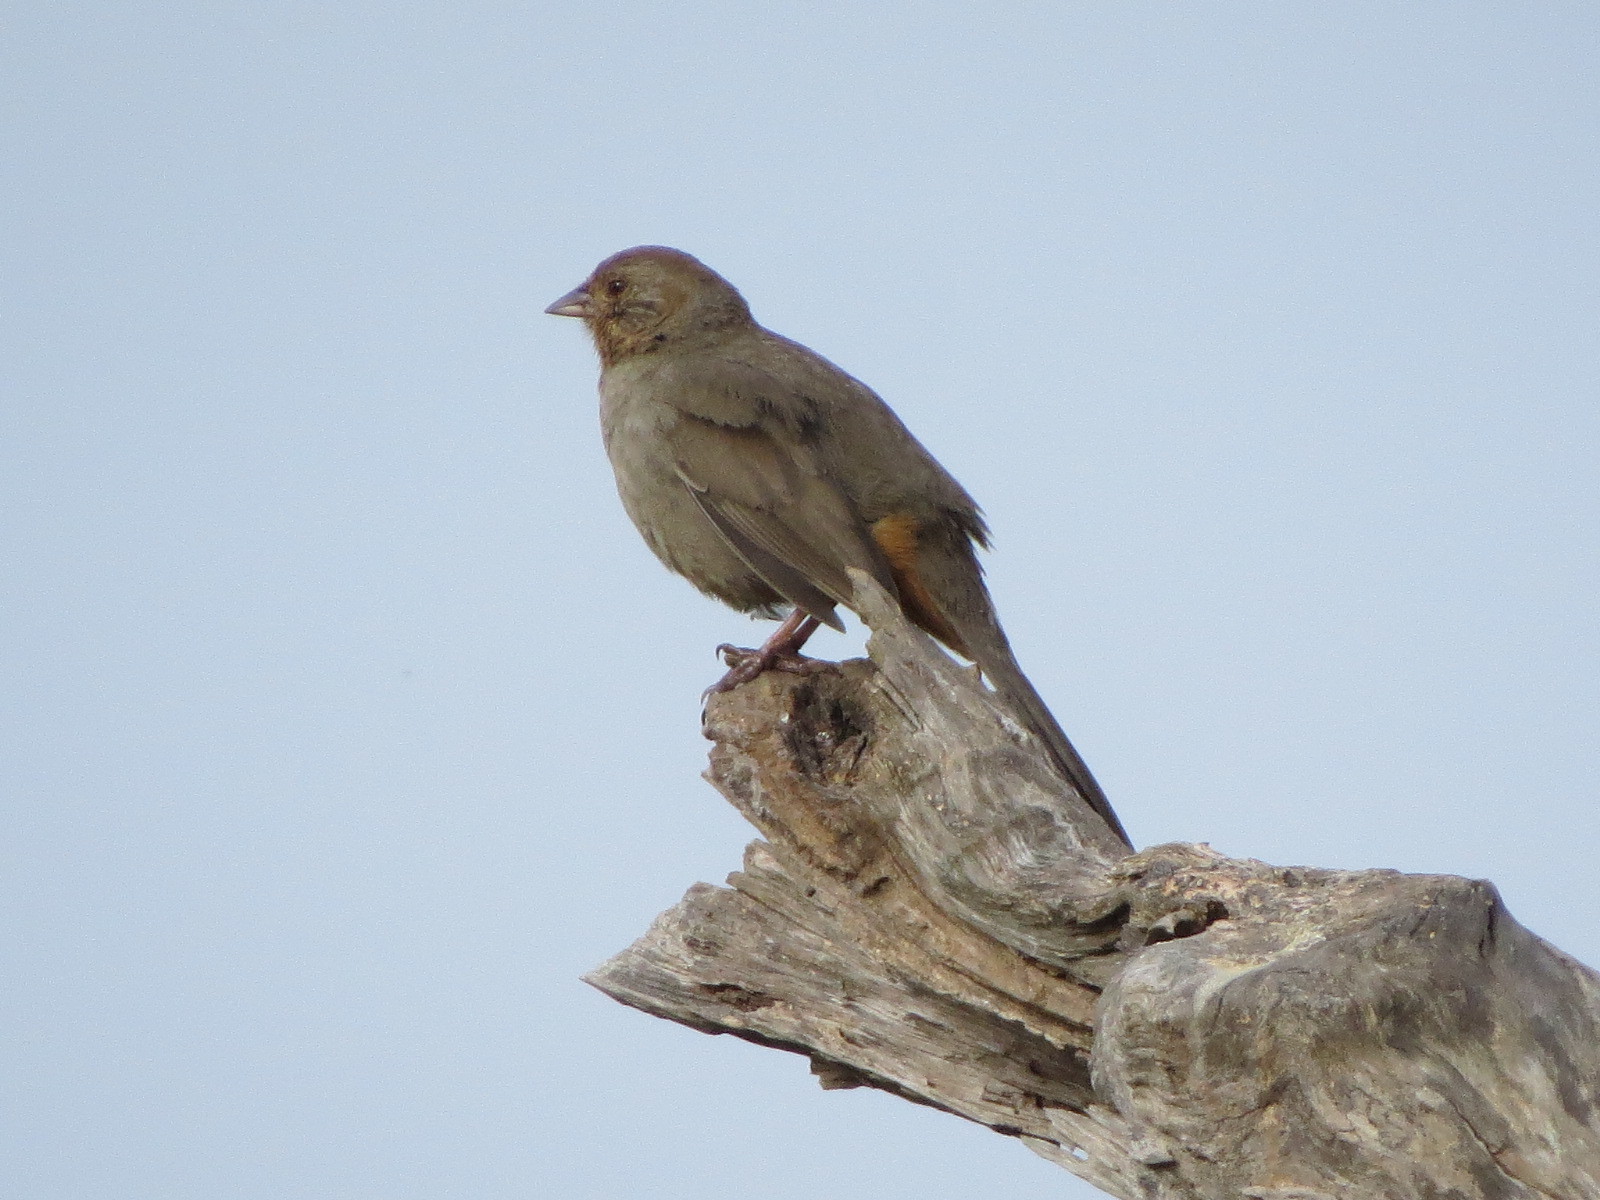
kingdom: Animalia
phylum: Chordata
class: Aves
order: Passeriformes
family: Passerellidae
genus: Melozone
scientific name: Melozone crissalis
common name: California towhee
